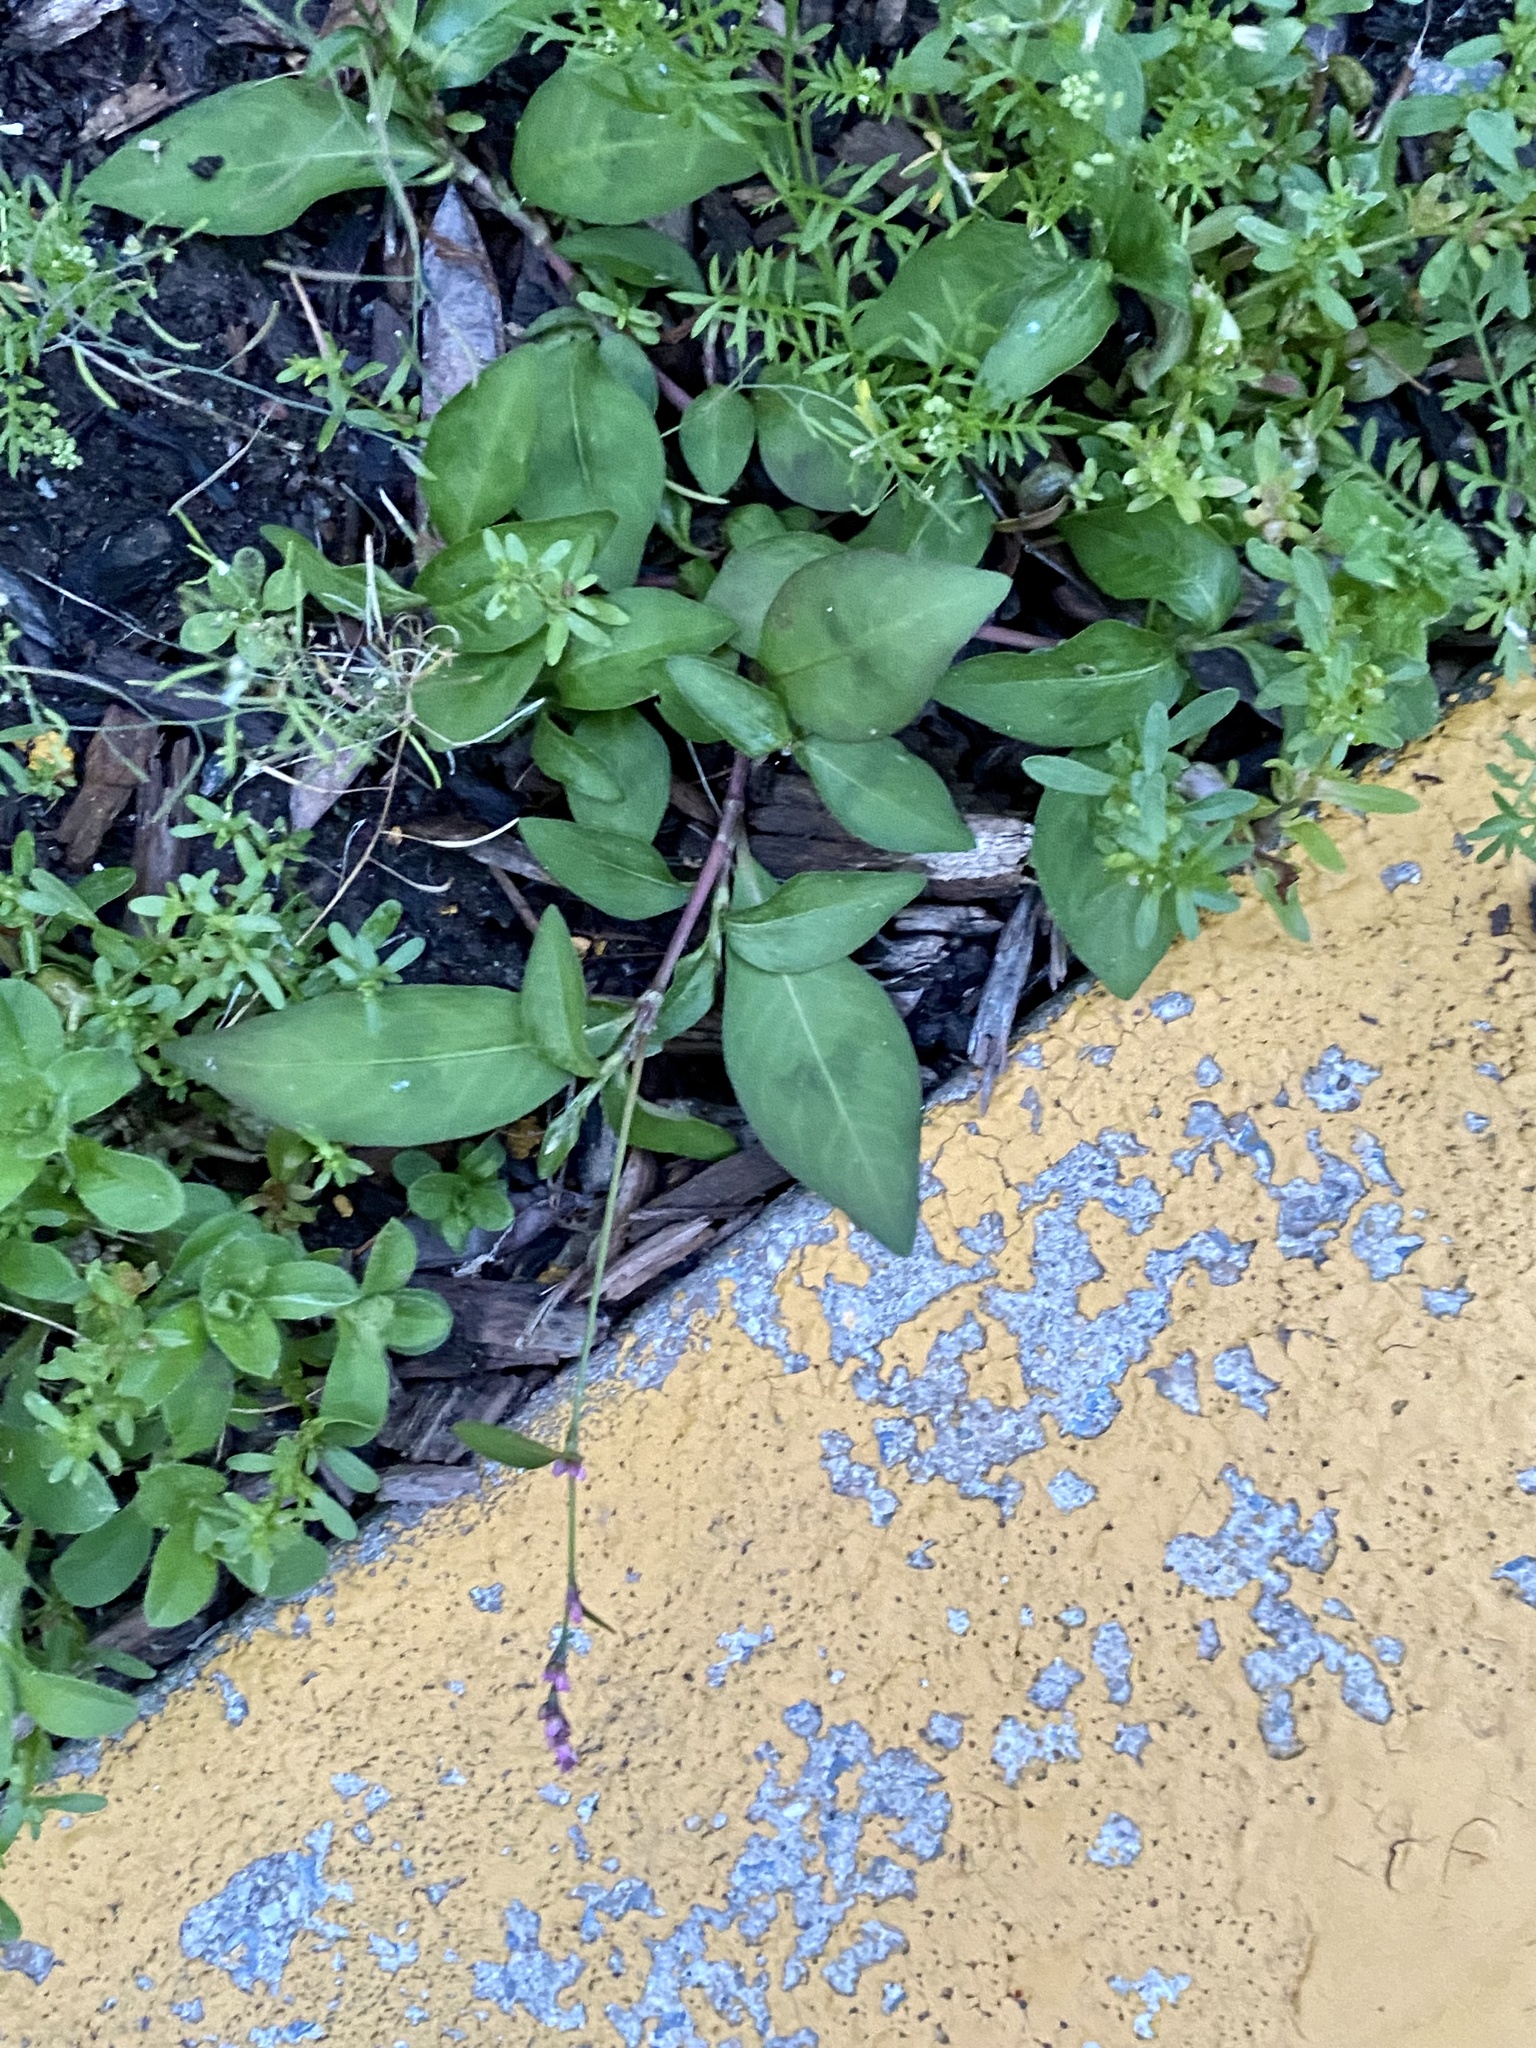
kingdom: Plantae
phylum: Tracheophyta
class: Magnoliopsida
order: Caryophyllales
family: Polygonaceae
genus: Persicaria
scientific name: Persicaria longiseta
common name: Bristly lady's-thumb
